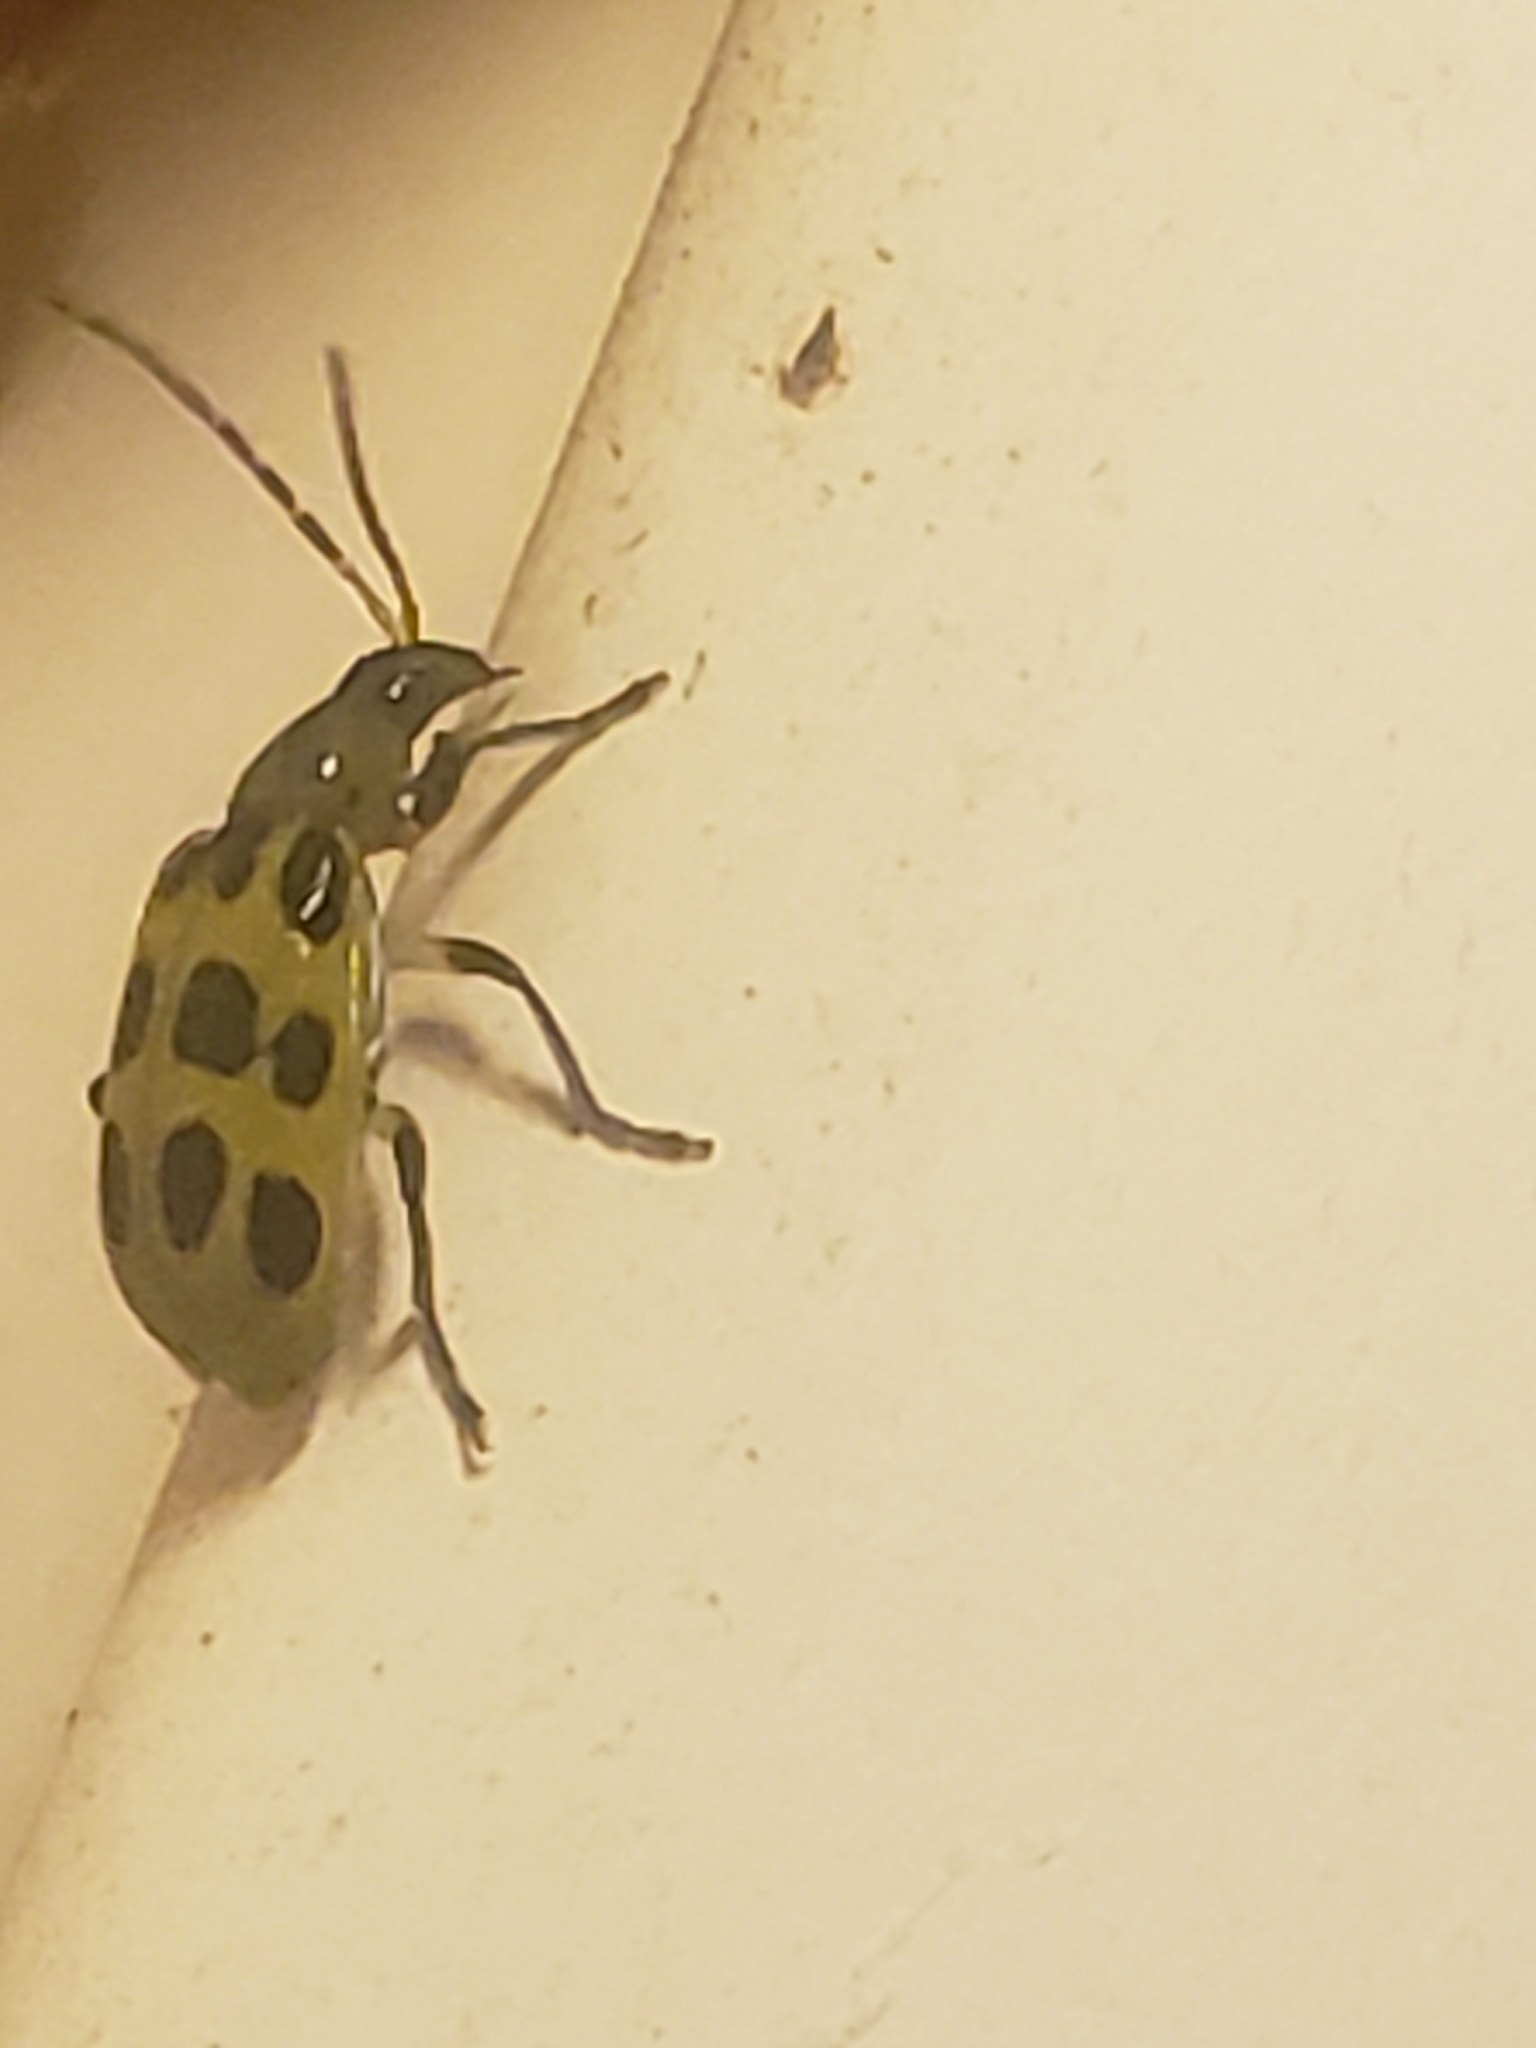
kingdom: Animalia
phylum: Arthropoda
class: Insecta
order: Coleoptera
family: Chrysomelidae
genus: Diabrotica
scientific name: Diabrotica undecimpunctata
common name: Spotted cucumber beetle
